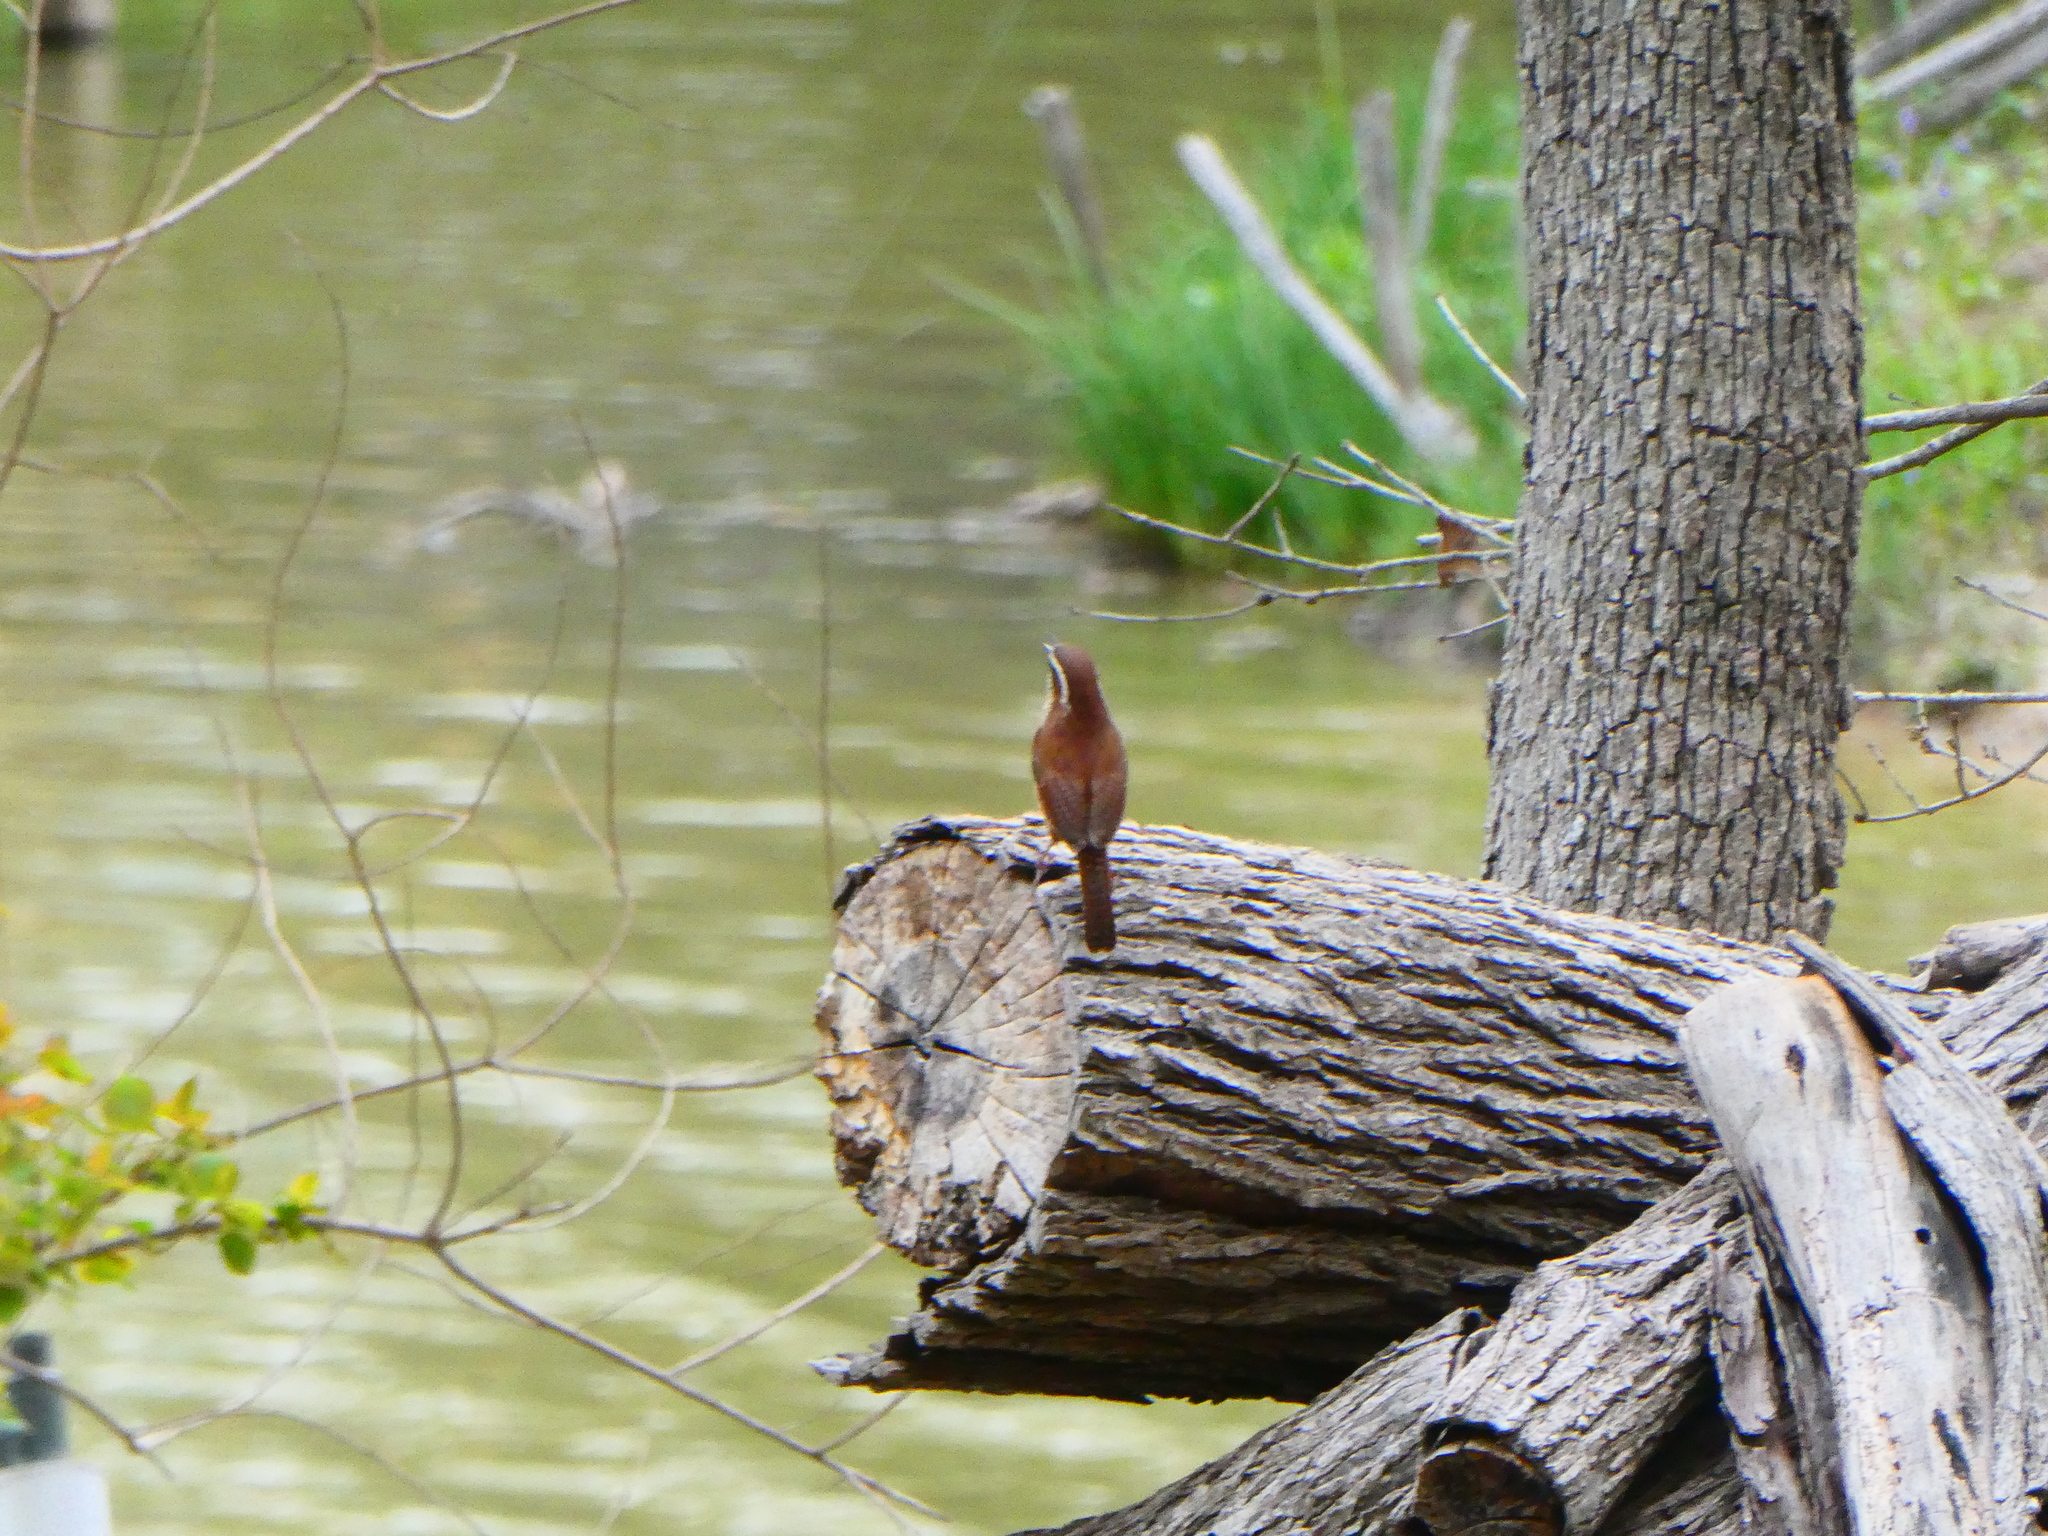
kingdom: Animalia
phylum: Chordata
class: Aves
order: Passeriformes
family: Troglodytidae
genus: Thryothorus
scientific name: Thryothorus ludovicianus
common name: Carolina wren
